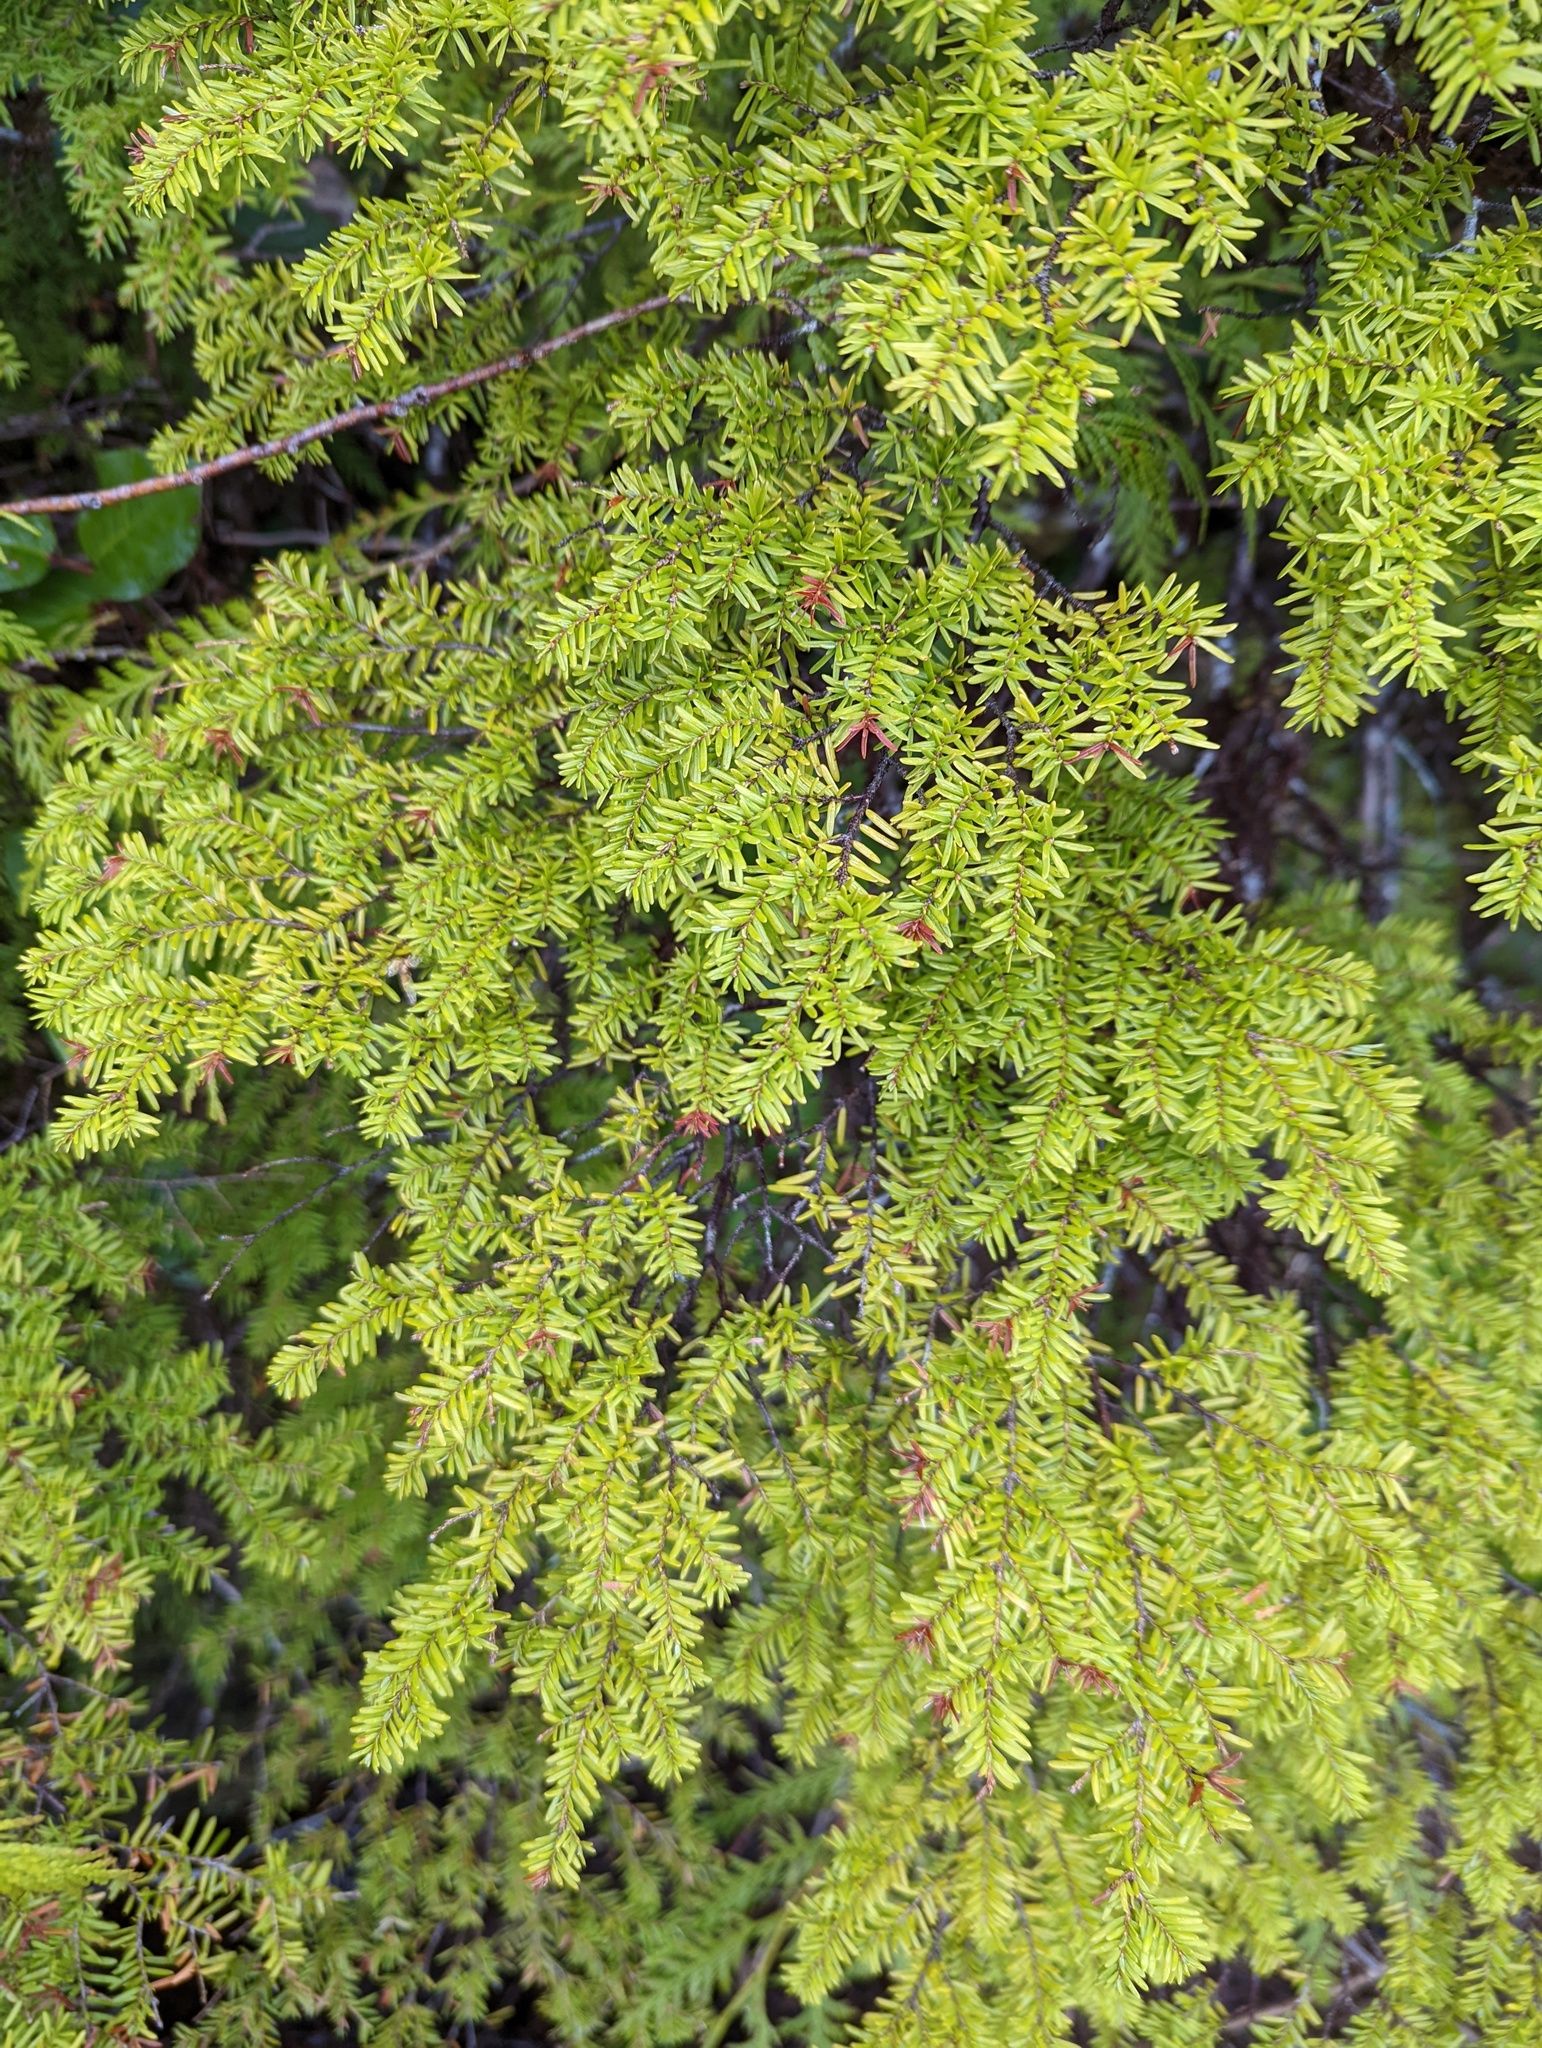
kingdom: Plantae
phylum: Tracheophyta
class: Pinopsida
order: Pinales
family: Pinaceae
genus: Tsuga
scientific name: Tsuga heterophylla
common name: Western hemlock
